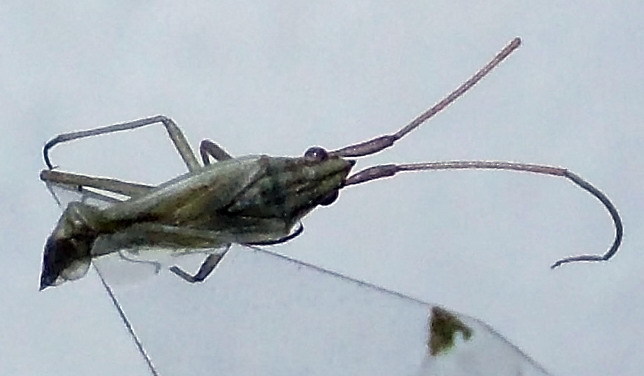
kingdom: Animalia
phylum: Arthropoda
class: Insecta
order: Hemiptera
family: Miridae
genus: Trigonotylus
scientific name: Trigonotylus pulchellus
